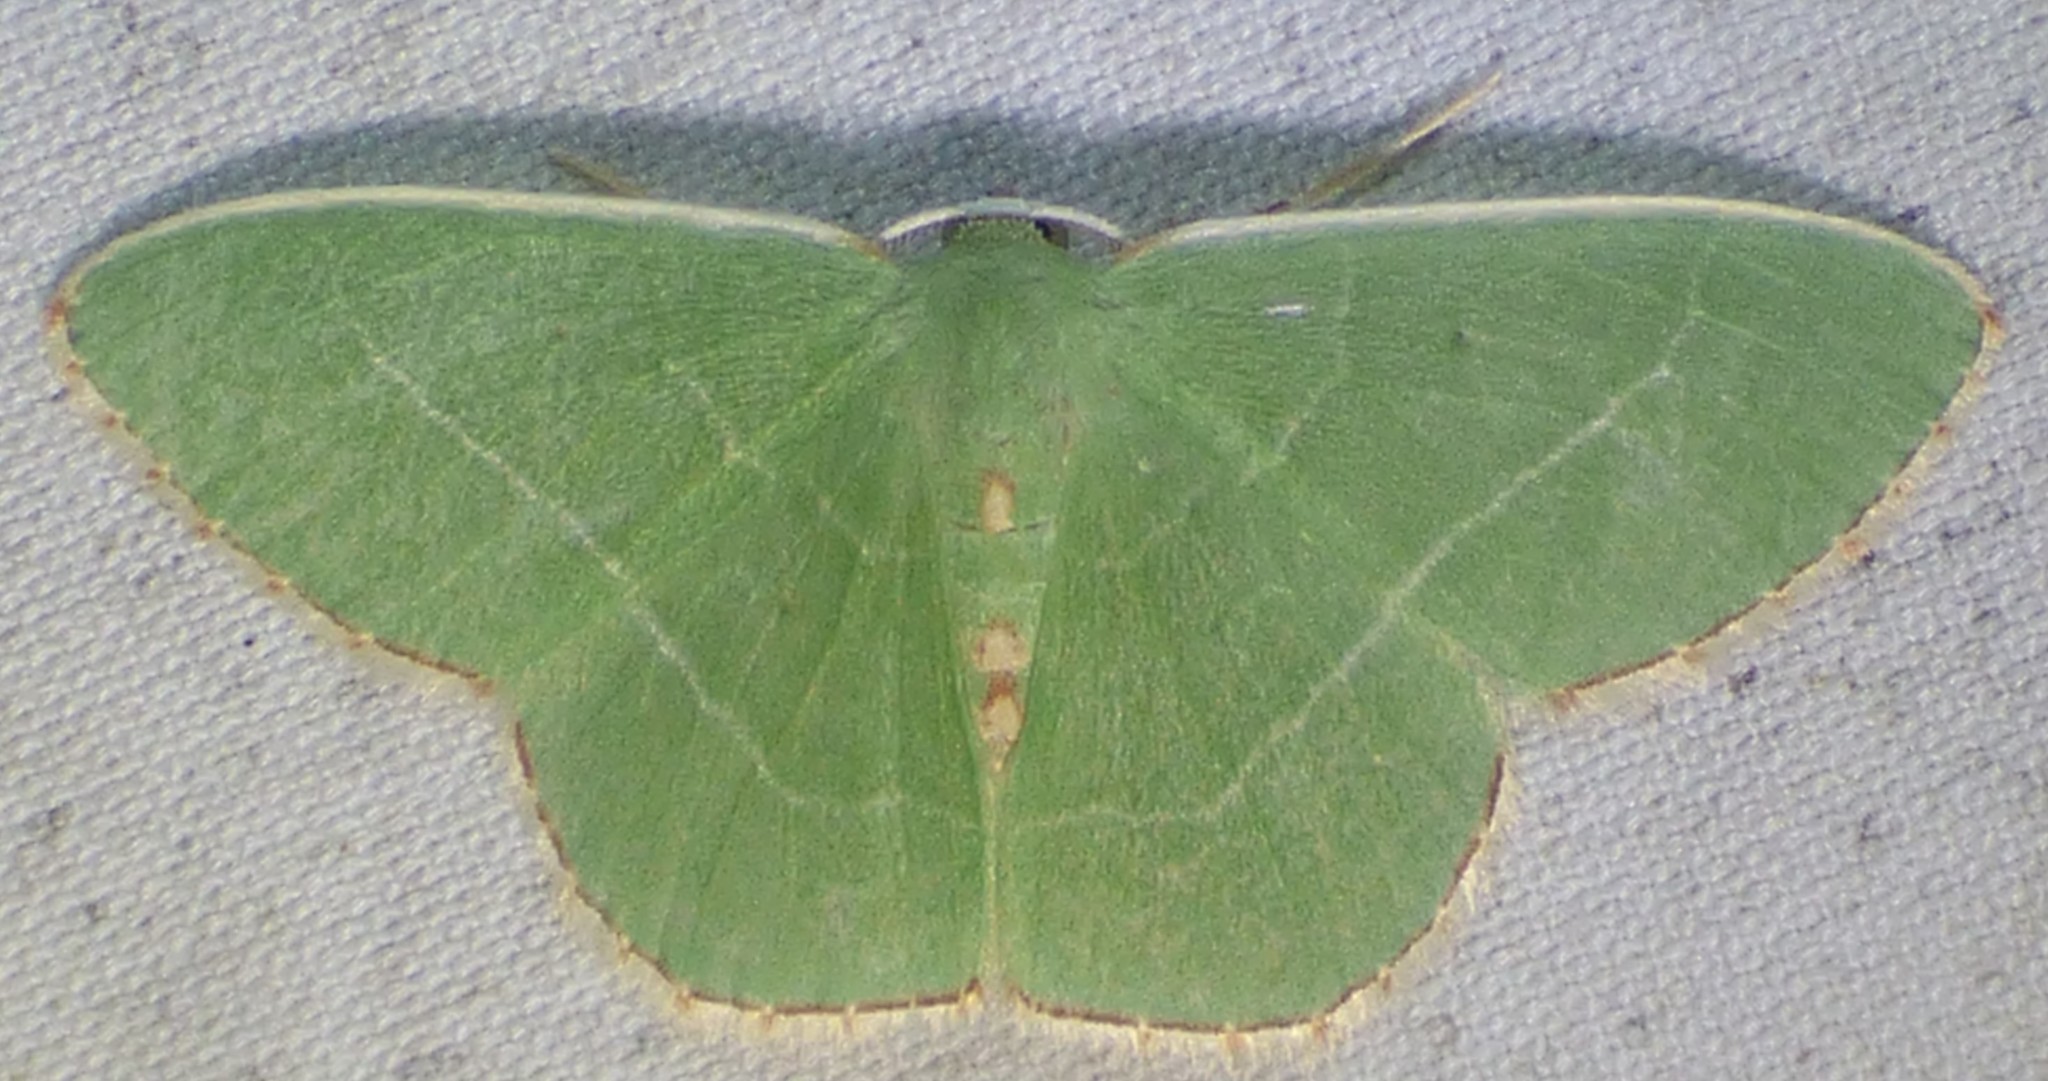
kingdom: Animalia
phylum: Arthropoda
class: Insecta
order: Lepidoptera
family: Geometridae
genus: Nemoria
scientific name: Nemoria bistriaria
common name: Red-fringed emerald
